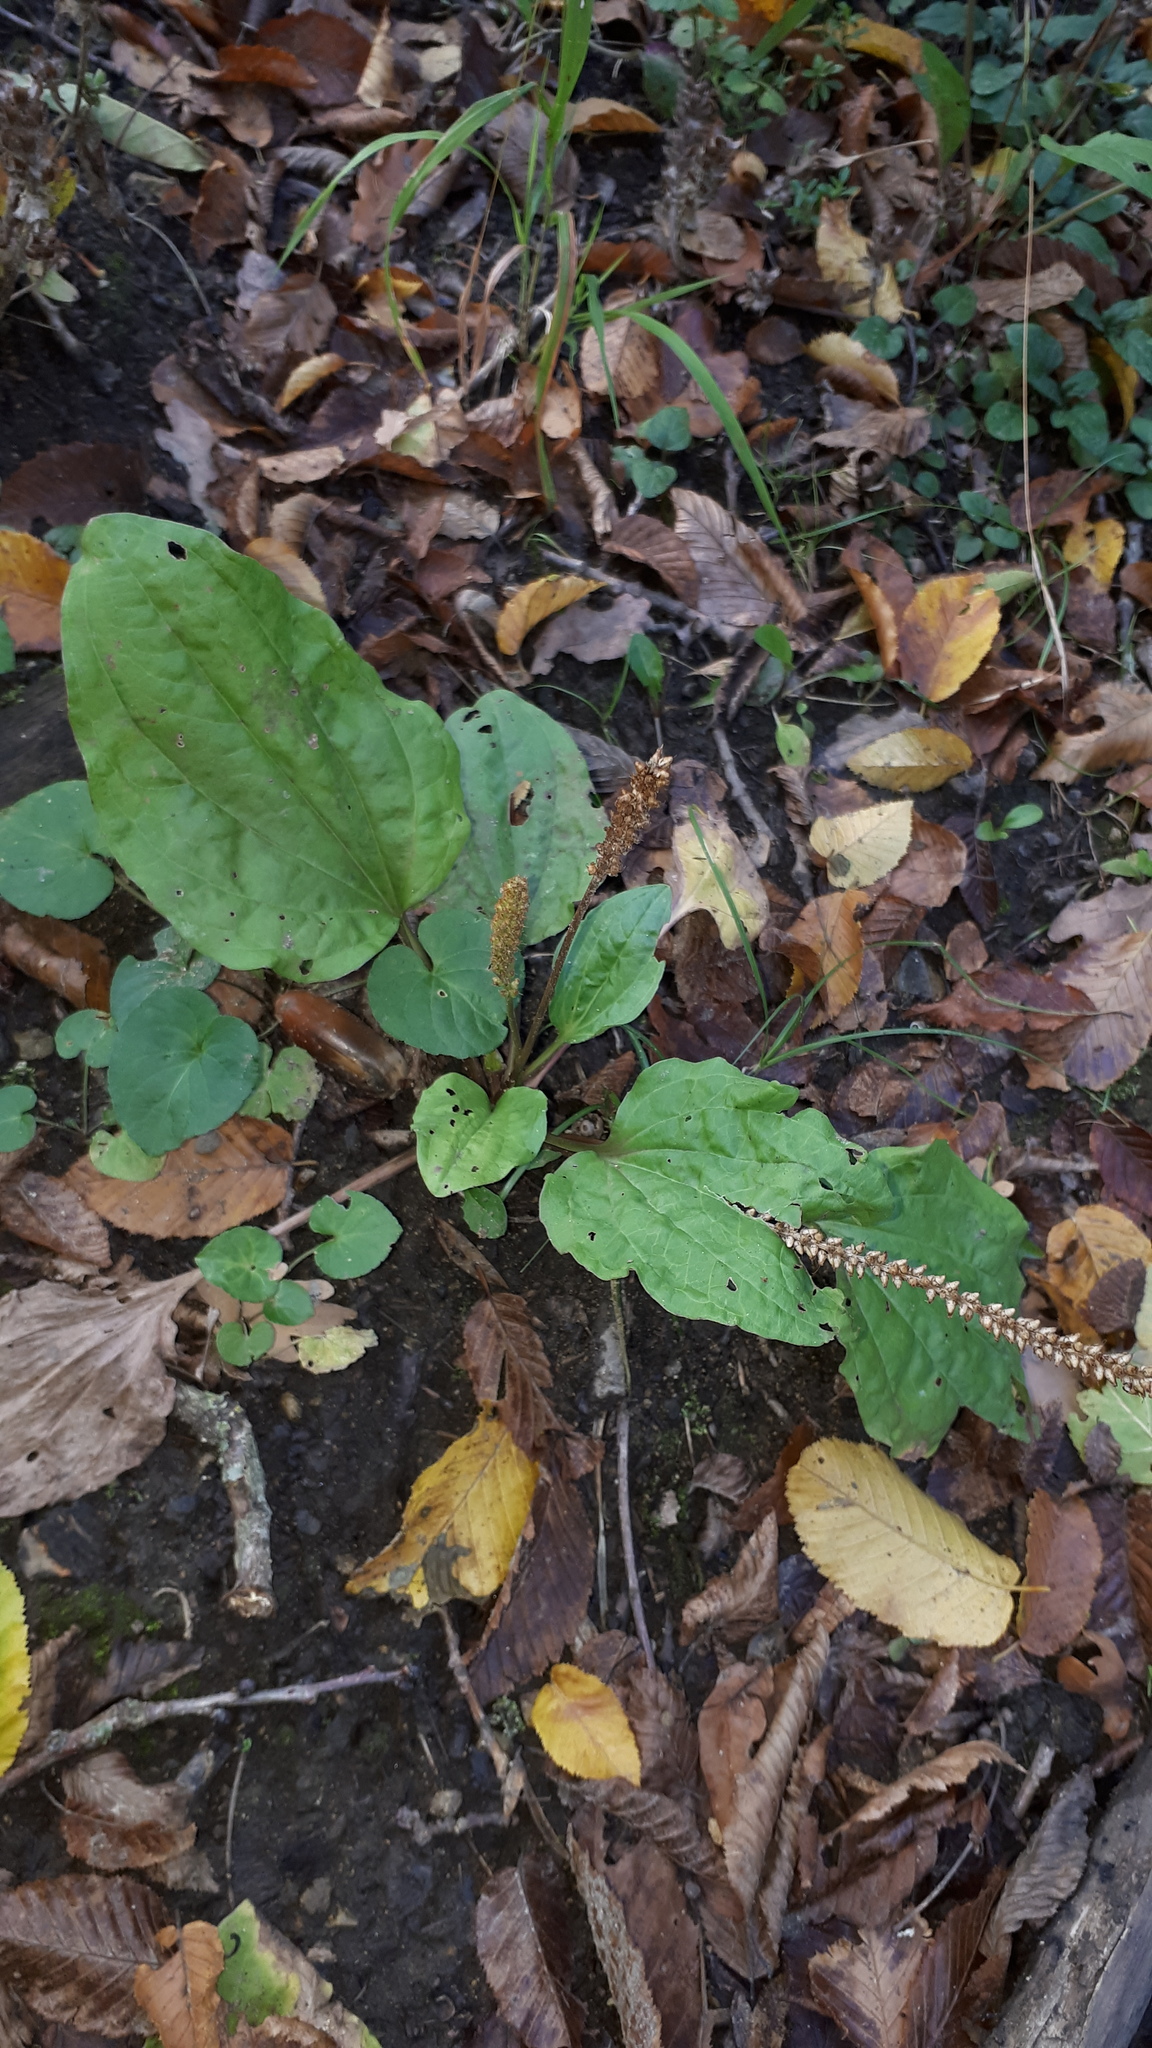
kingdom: Plantae
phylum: Tracheophyta
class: Magnoliopsida
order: Lamiales
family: Plantaginaceae
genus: Plantago
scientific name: Plantago major
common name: Common plantain
